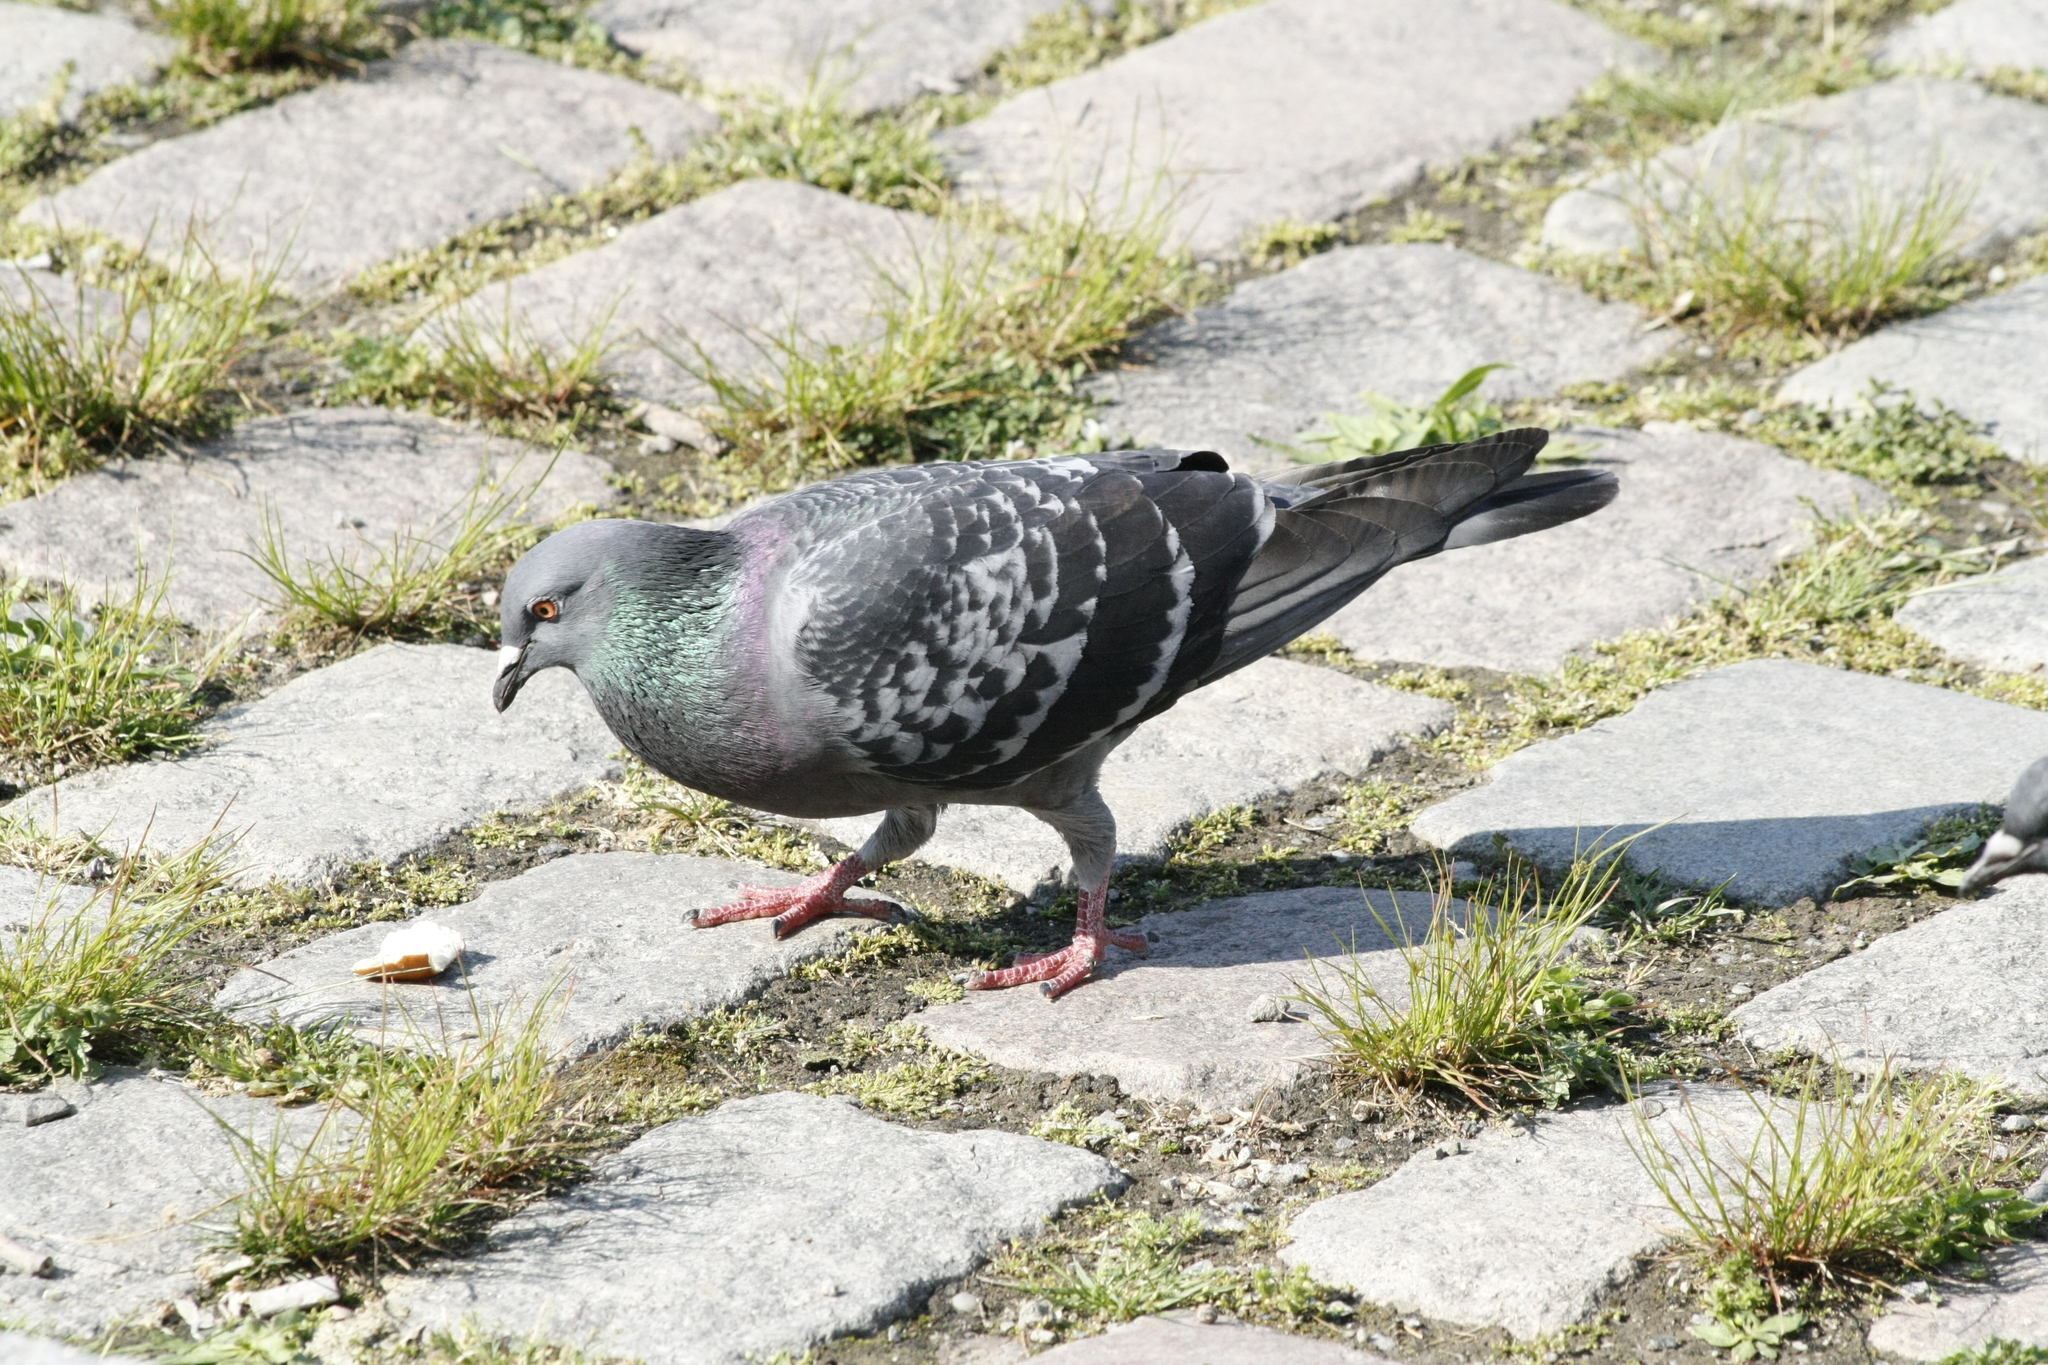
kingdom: Animalia
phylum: Chordata
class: Aves
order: Columbiformes
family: Columbidae
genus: Columba
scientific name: Columba livia
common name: Rock pigeon
